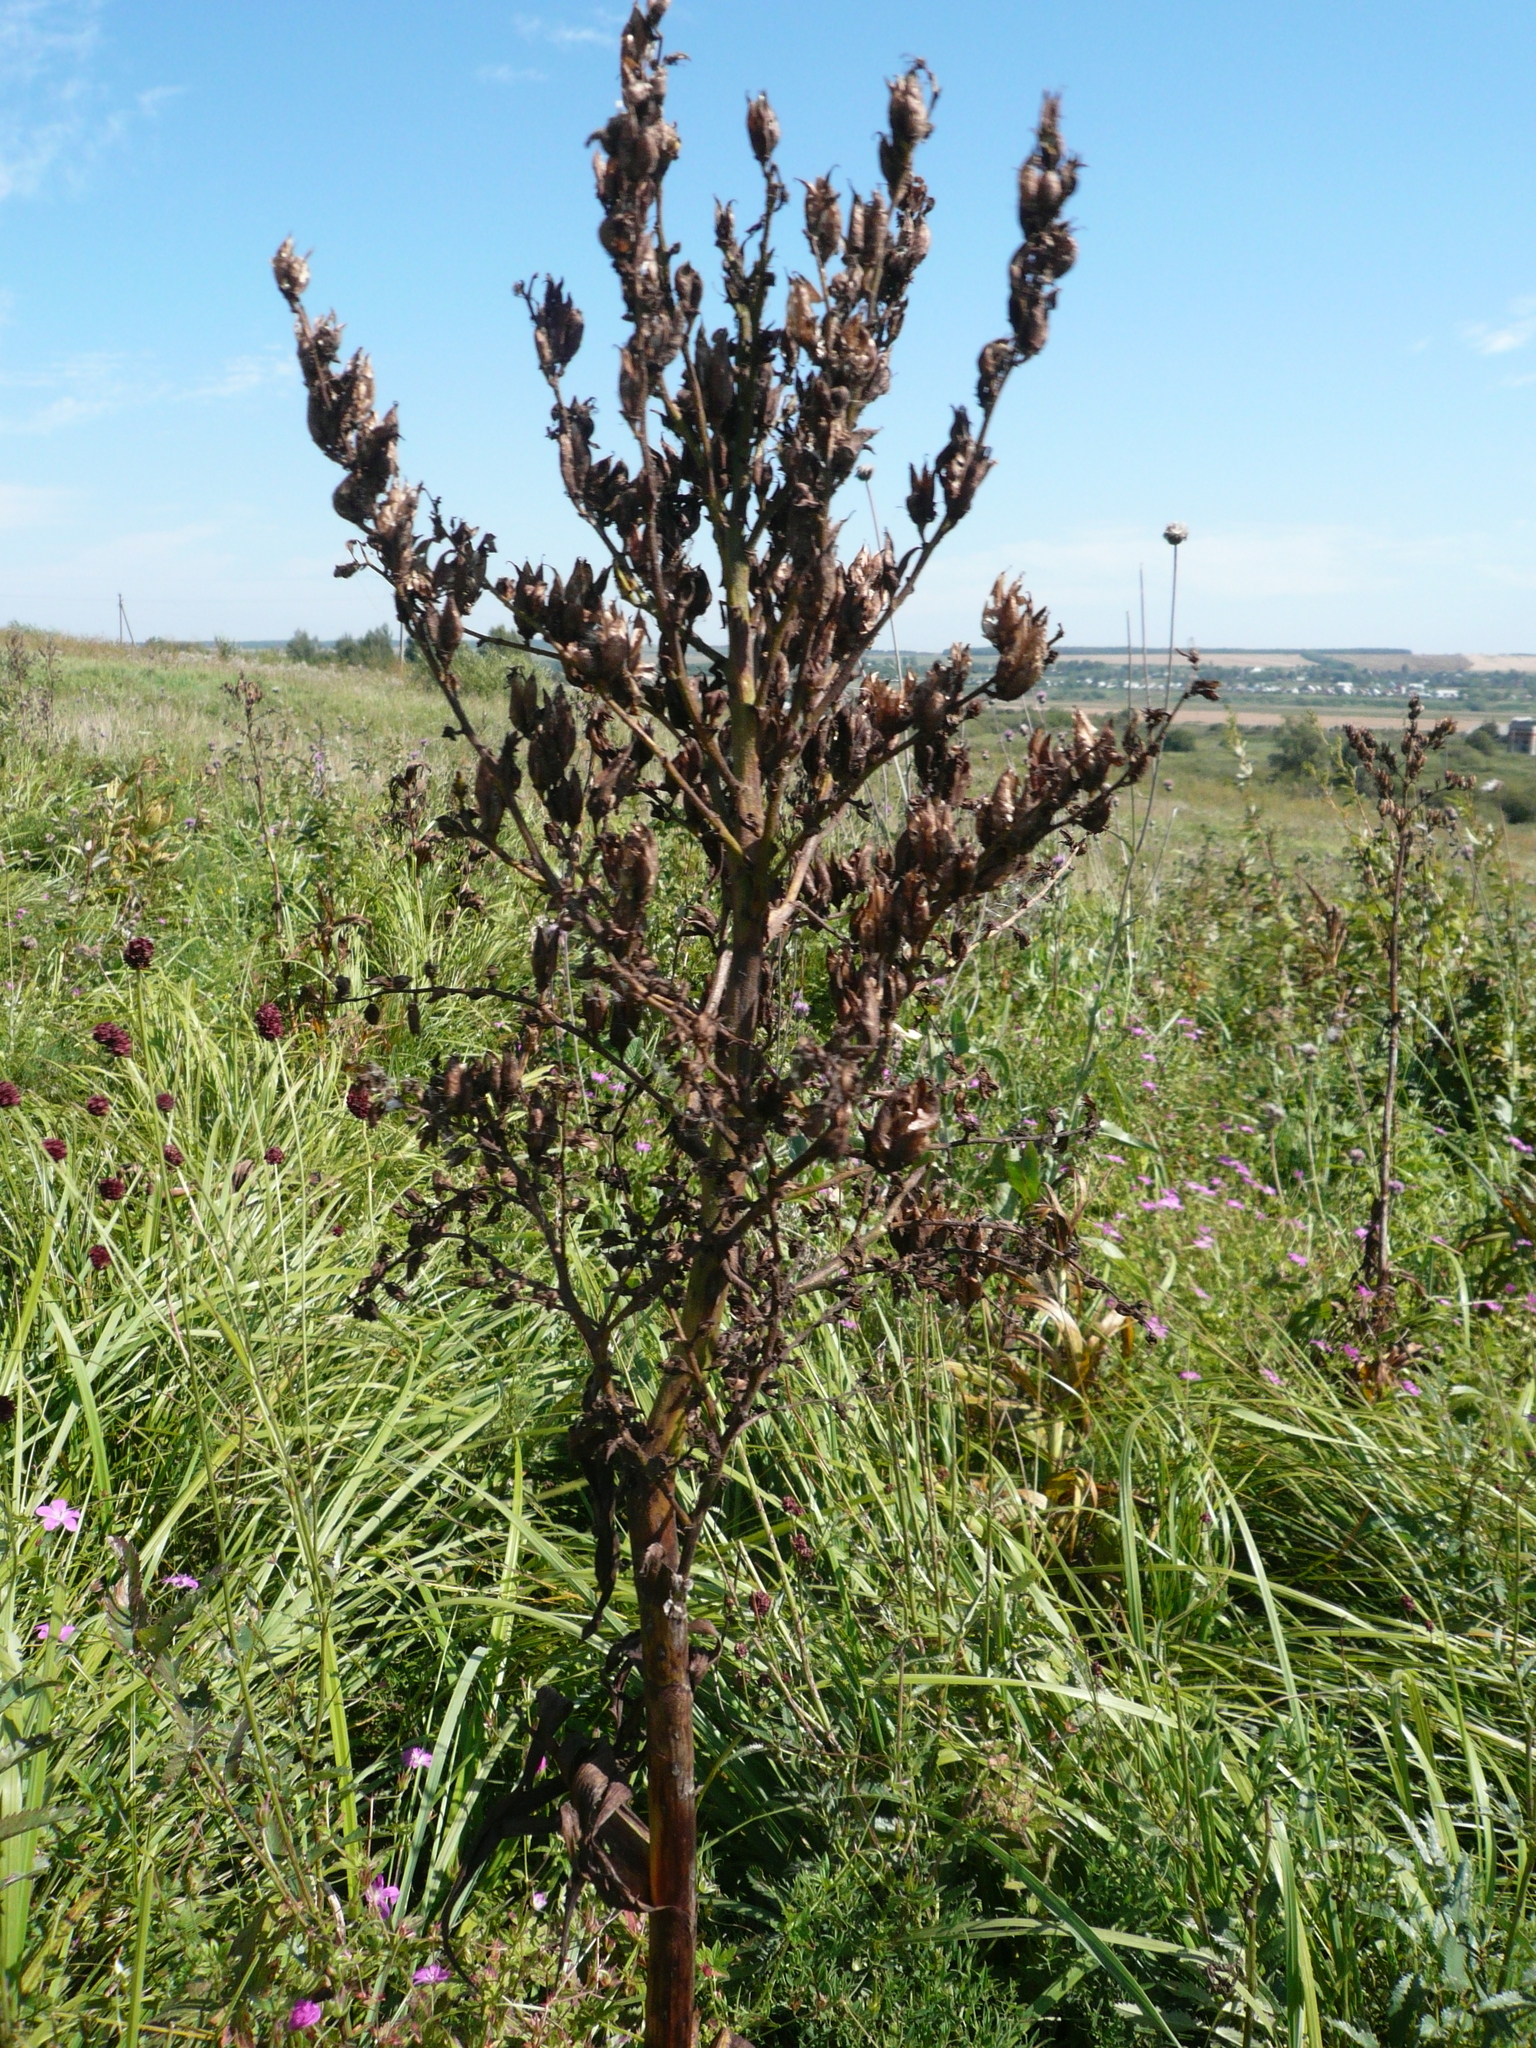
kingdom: Plantae
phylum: Tracheophyta
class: Liliopsida
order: Liliales
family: Melanthiaceae
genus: Veratrum
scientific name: Veratrum lobelianum
